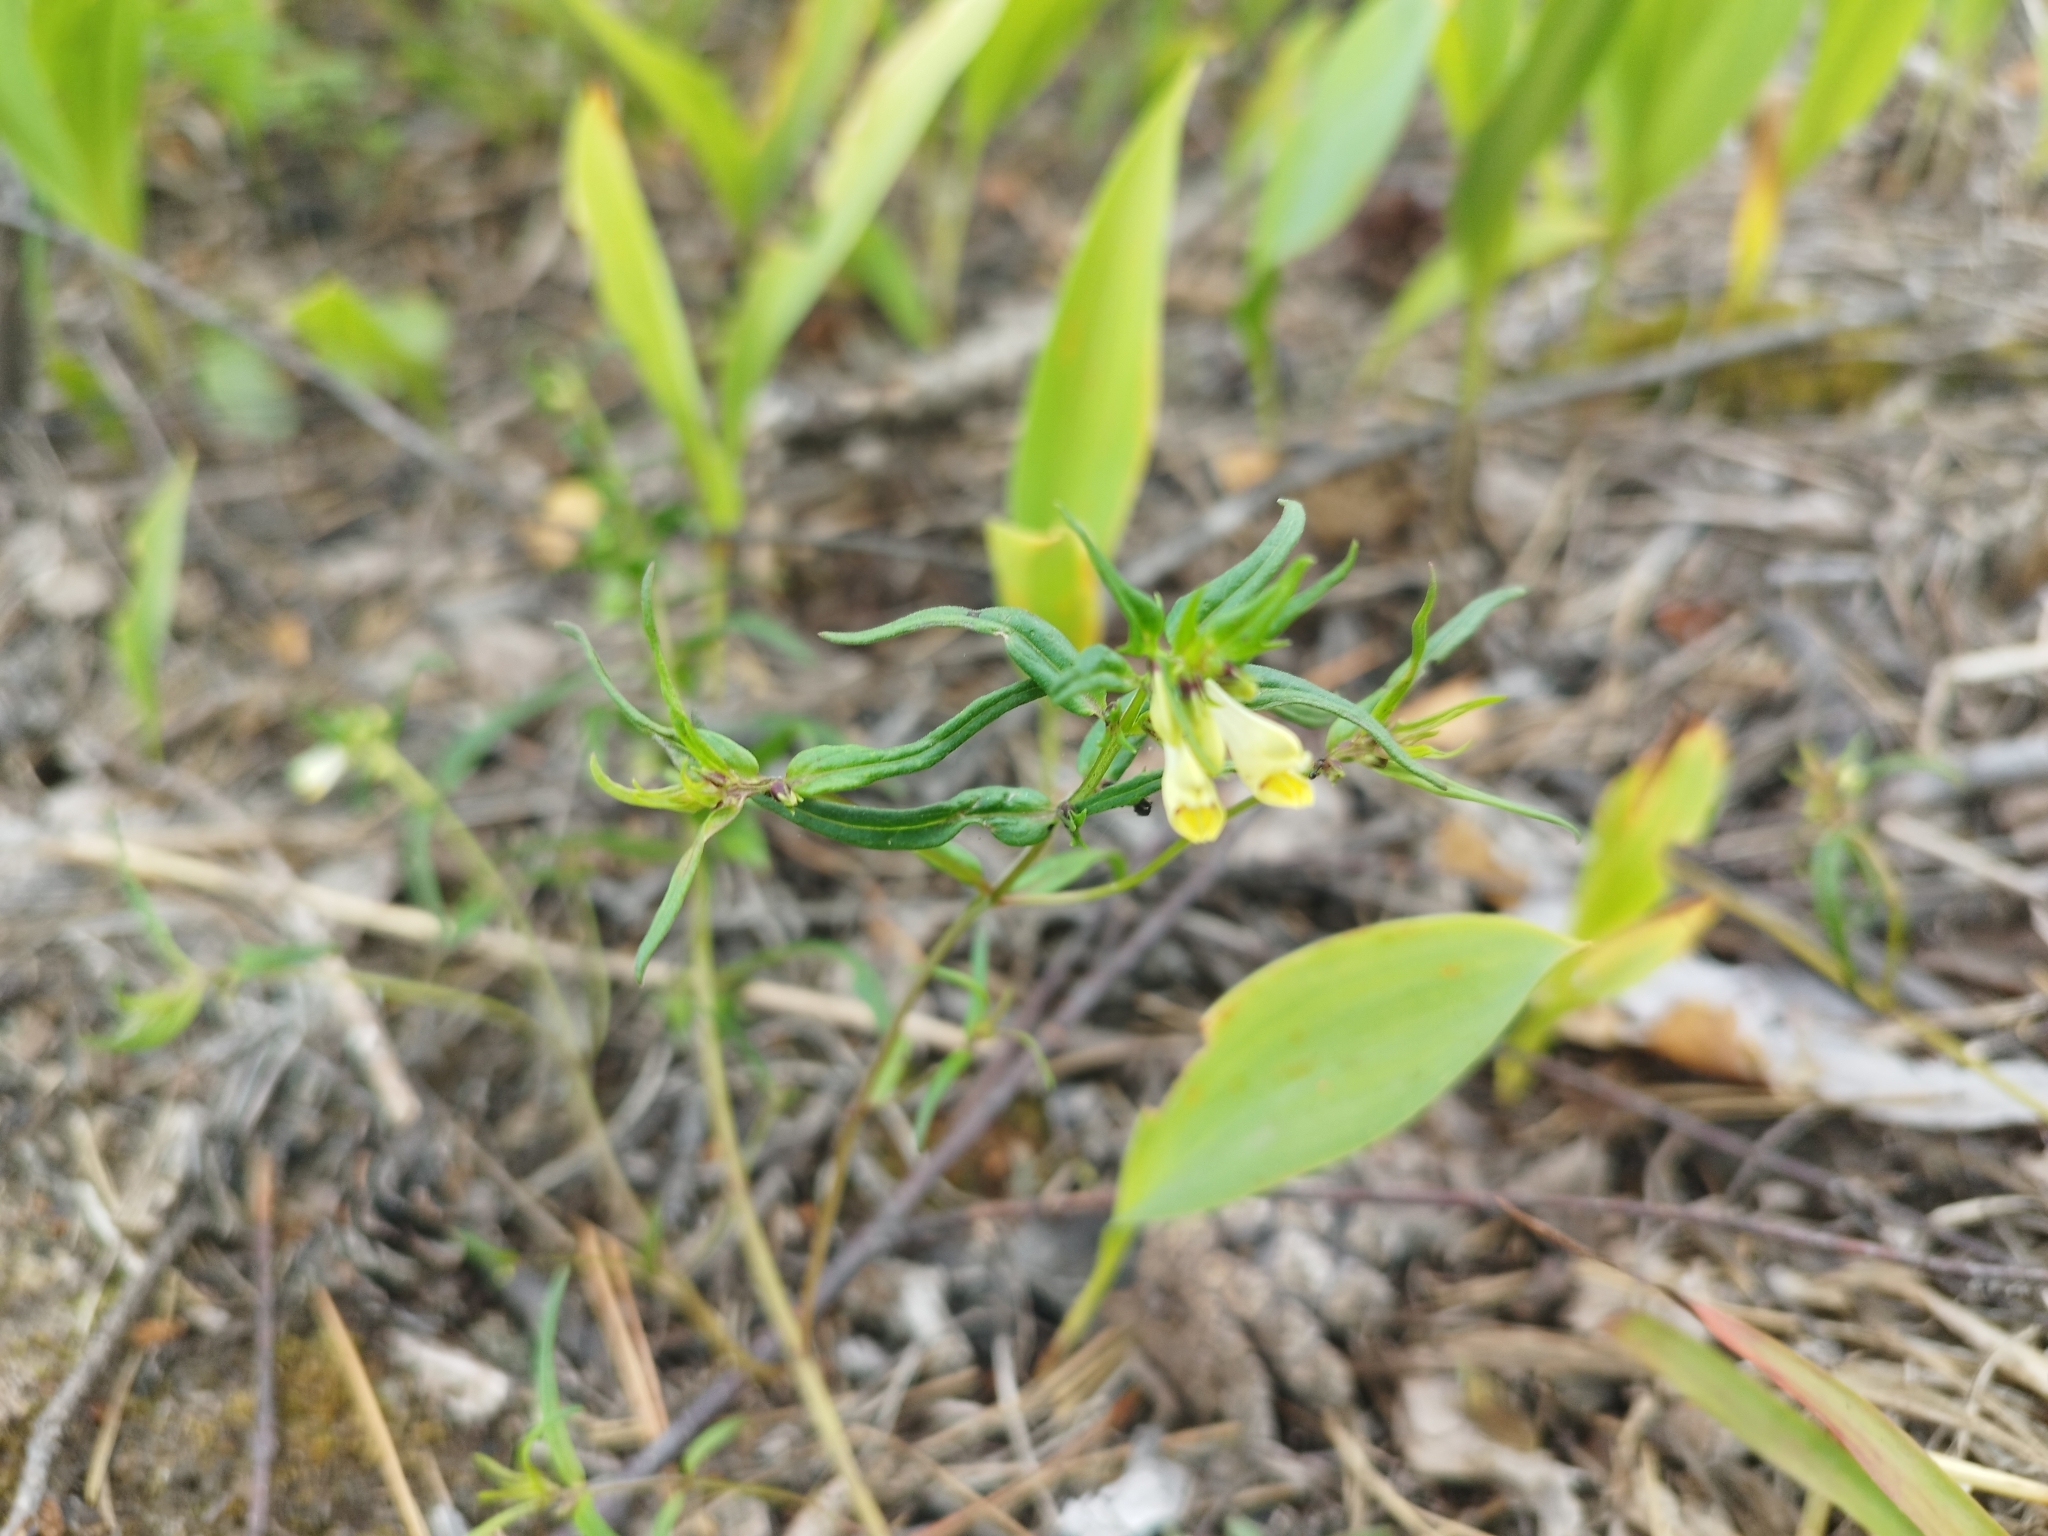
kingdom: Plantae
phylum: Tracheophyta
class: Magnoliopsida
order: Lamiales
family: Orobanchaceae
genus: Melampyrum
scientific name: Melampyrum pratense
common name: Common cow-wheat
